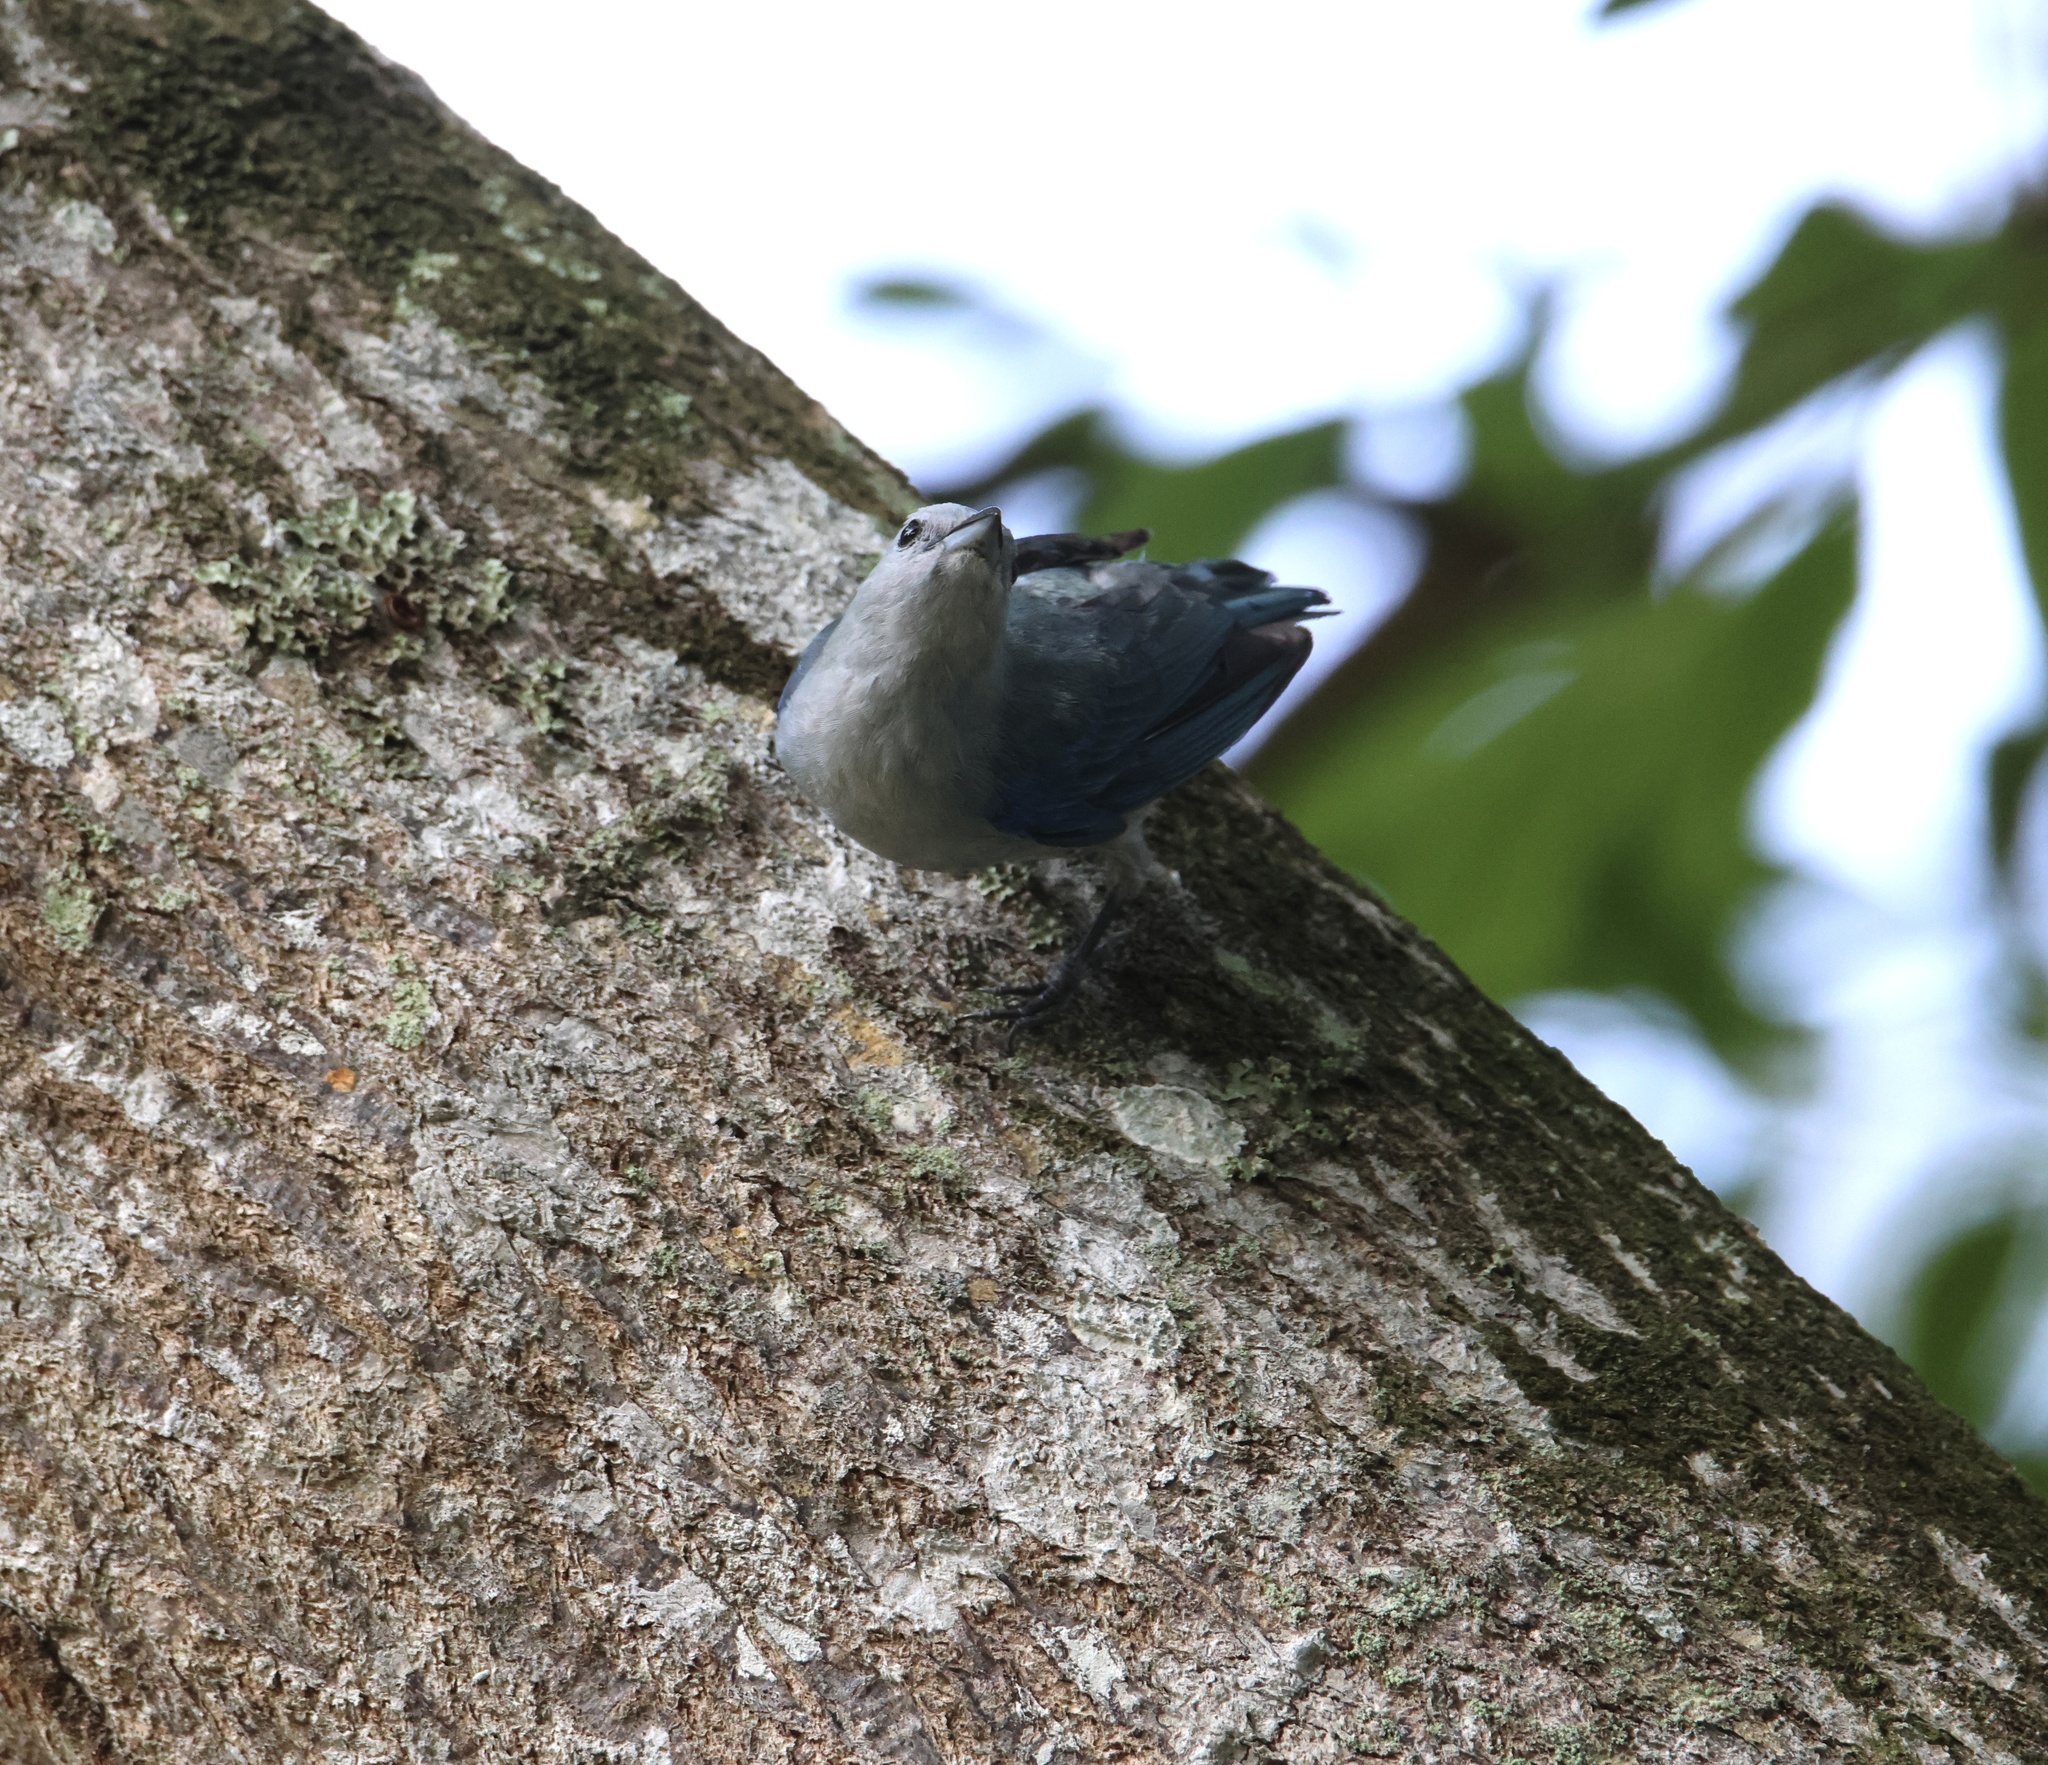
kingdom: Animalia
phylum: Chordata
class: Aves
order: Passeriformes
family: Thraupidae
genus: Thraupis
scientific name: Thraupis episcopus
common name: Blue-grey tanager
